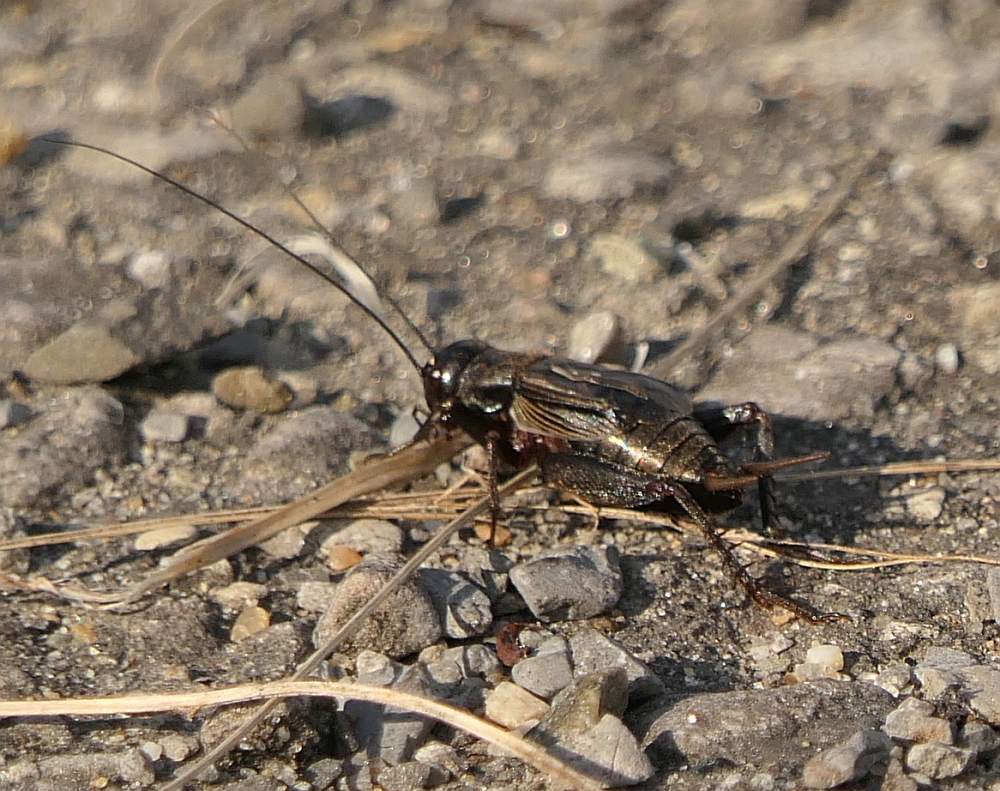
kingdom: Animalia
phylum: Arthropoda
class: Insecta
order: Orthoptera
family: Gryllidae
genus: Gryllus
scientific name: Gryllus pennsylvanicus
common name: Fall field cricket
